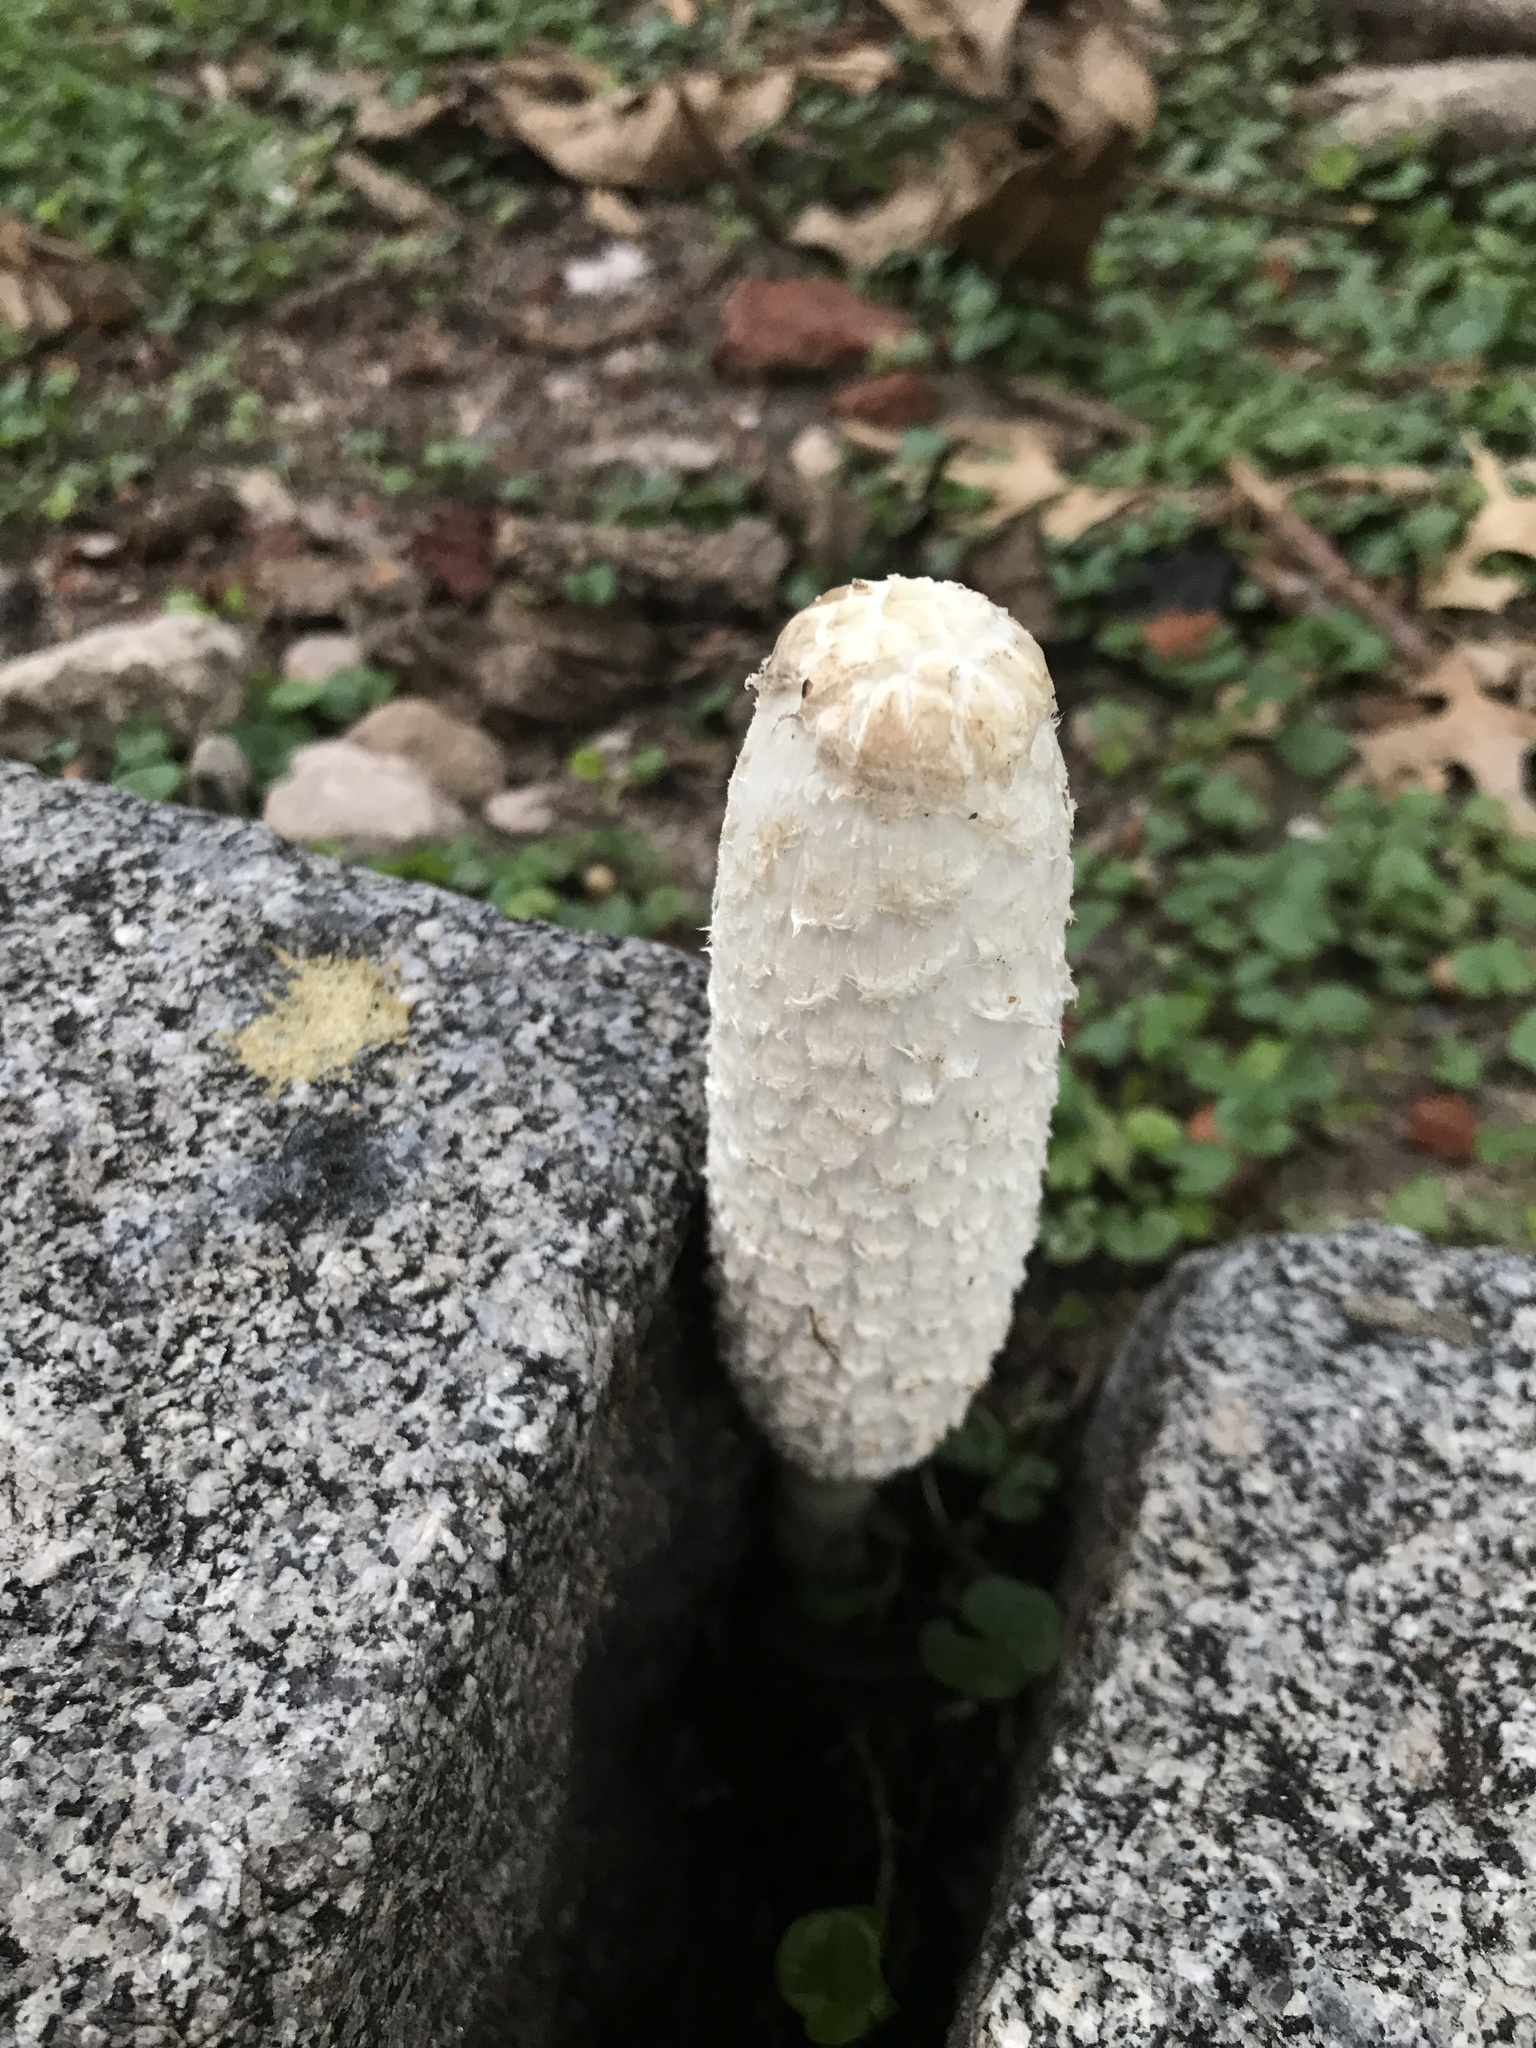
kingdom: Fungi
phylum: Basidiomycota
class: Agaricomycetes
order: Agaricales
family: Agaricaceae
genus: Coprinus
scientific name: Coprinus comatus
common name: Lawyer's wig
